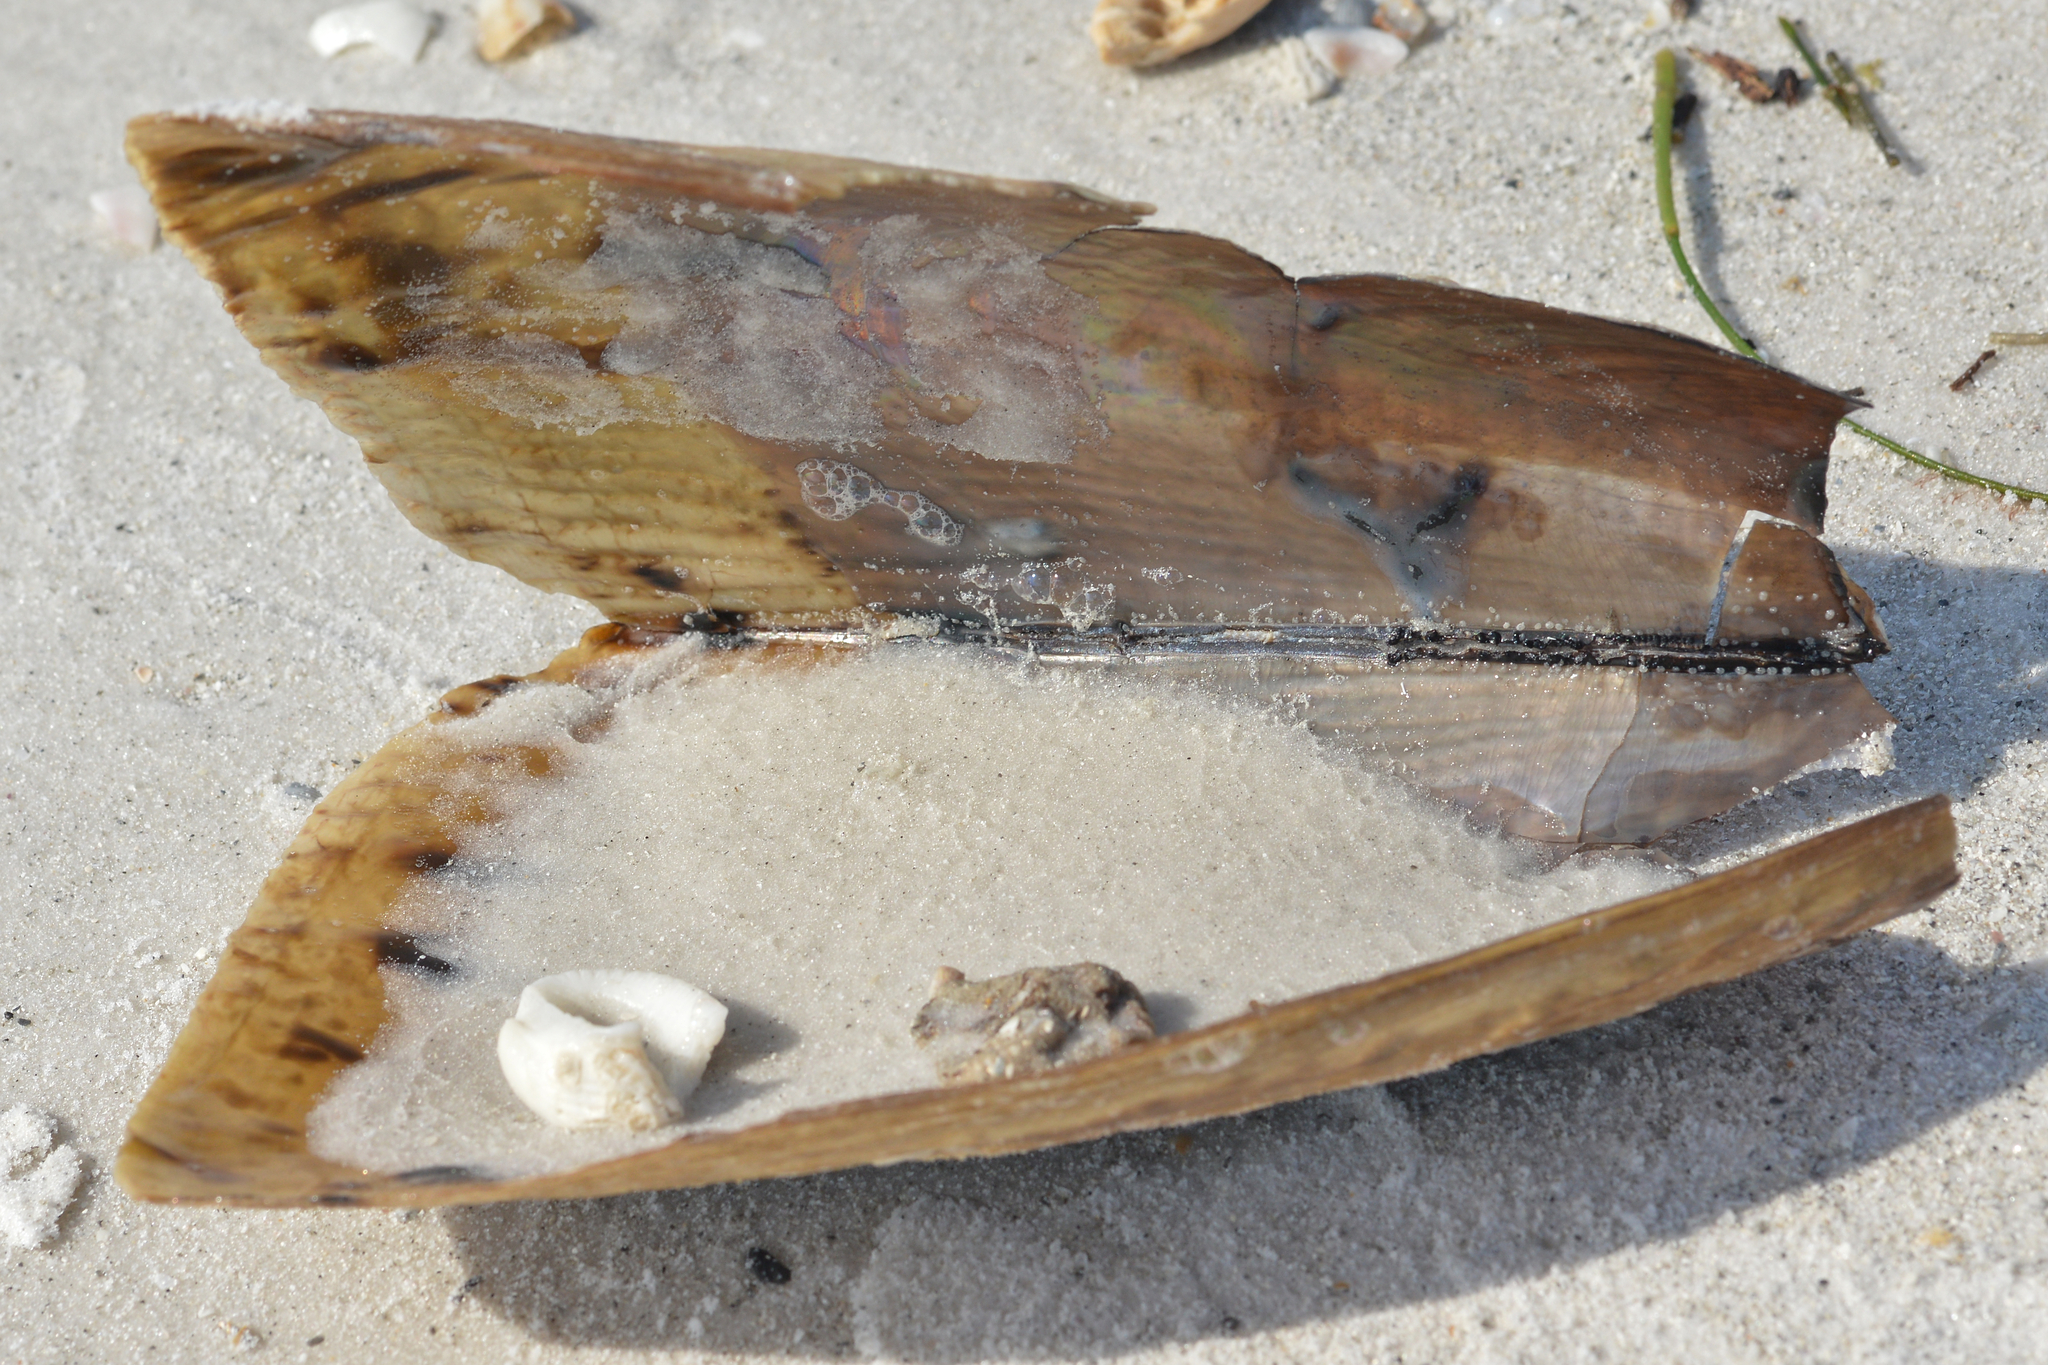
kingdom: Animalia
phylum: Mollusca
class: Bivalvia
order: Ostreida
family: Pinnidae
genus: Atrina
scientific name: Atrina serrata
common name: Saw-toothed penshell
